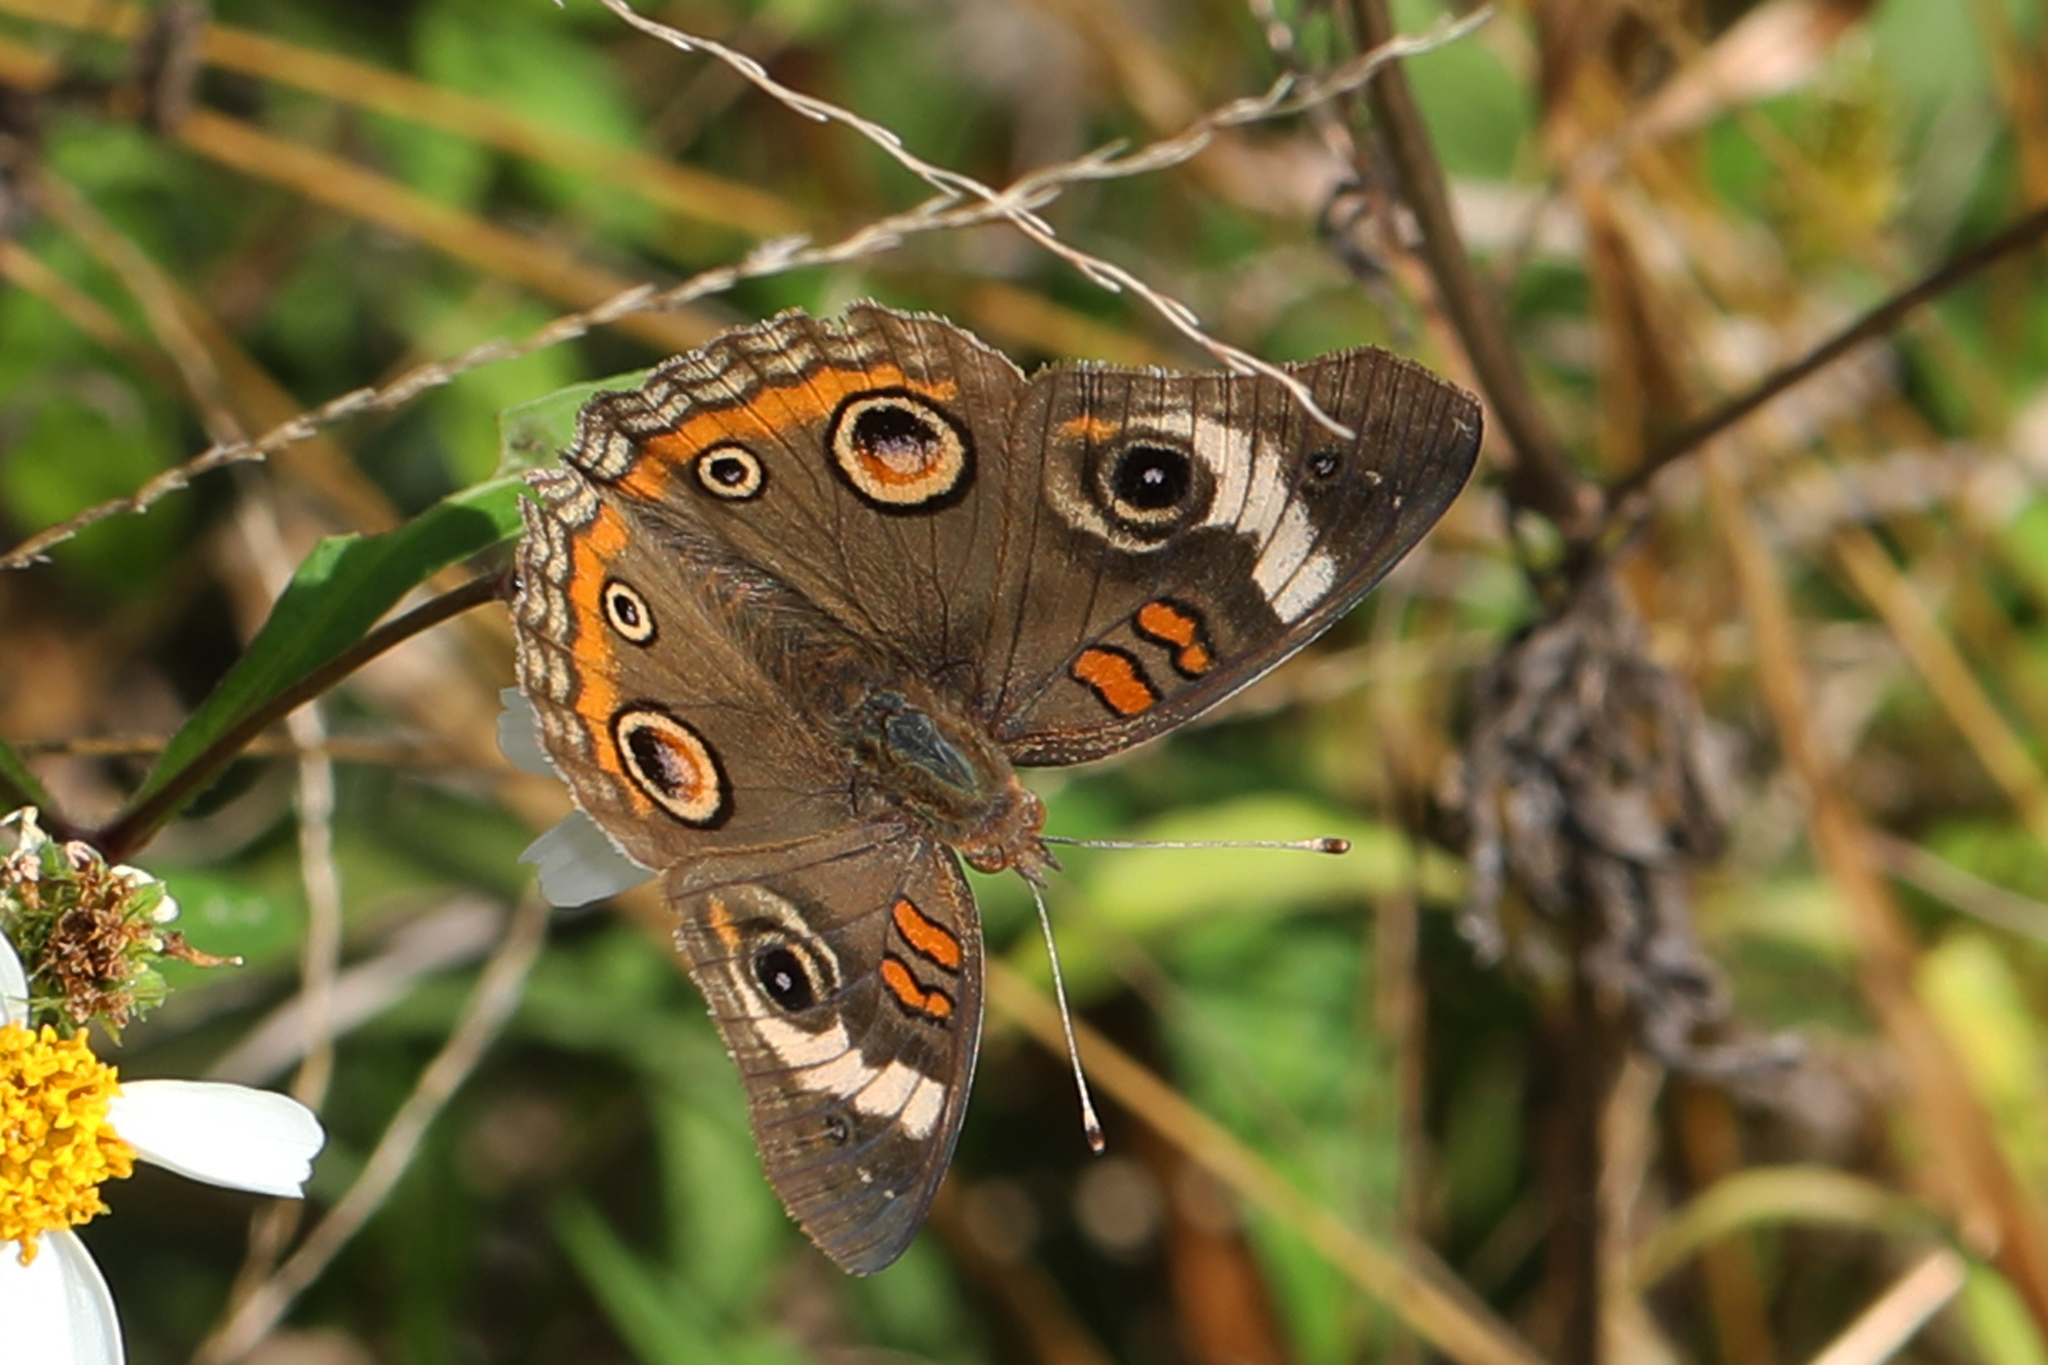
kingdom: Animalia
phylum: Arthropoda
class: Insecta
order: Lepidoptera
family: Nymphalidae
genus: Junonia
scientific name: Junonia coenia
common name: Common buckeye
